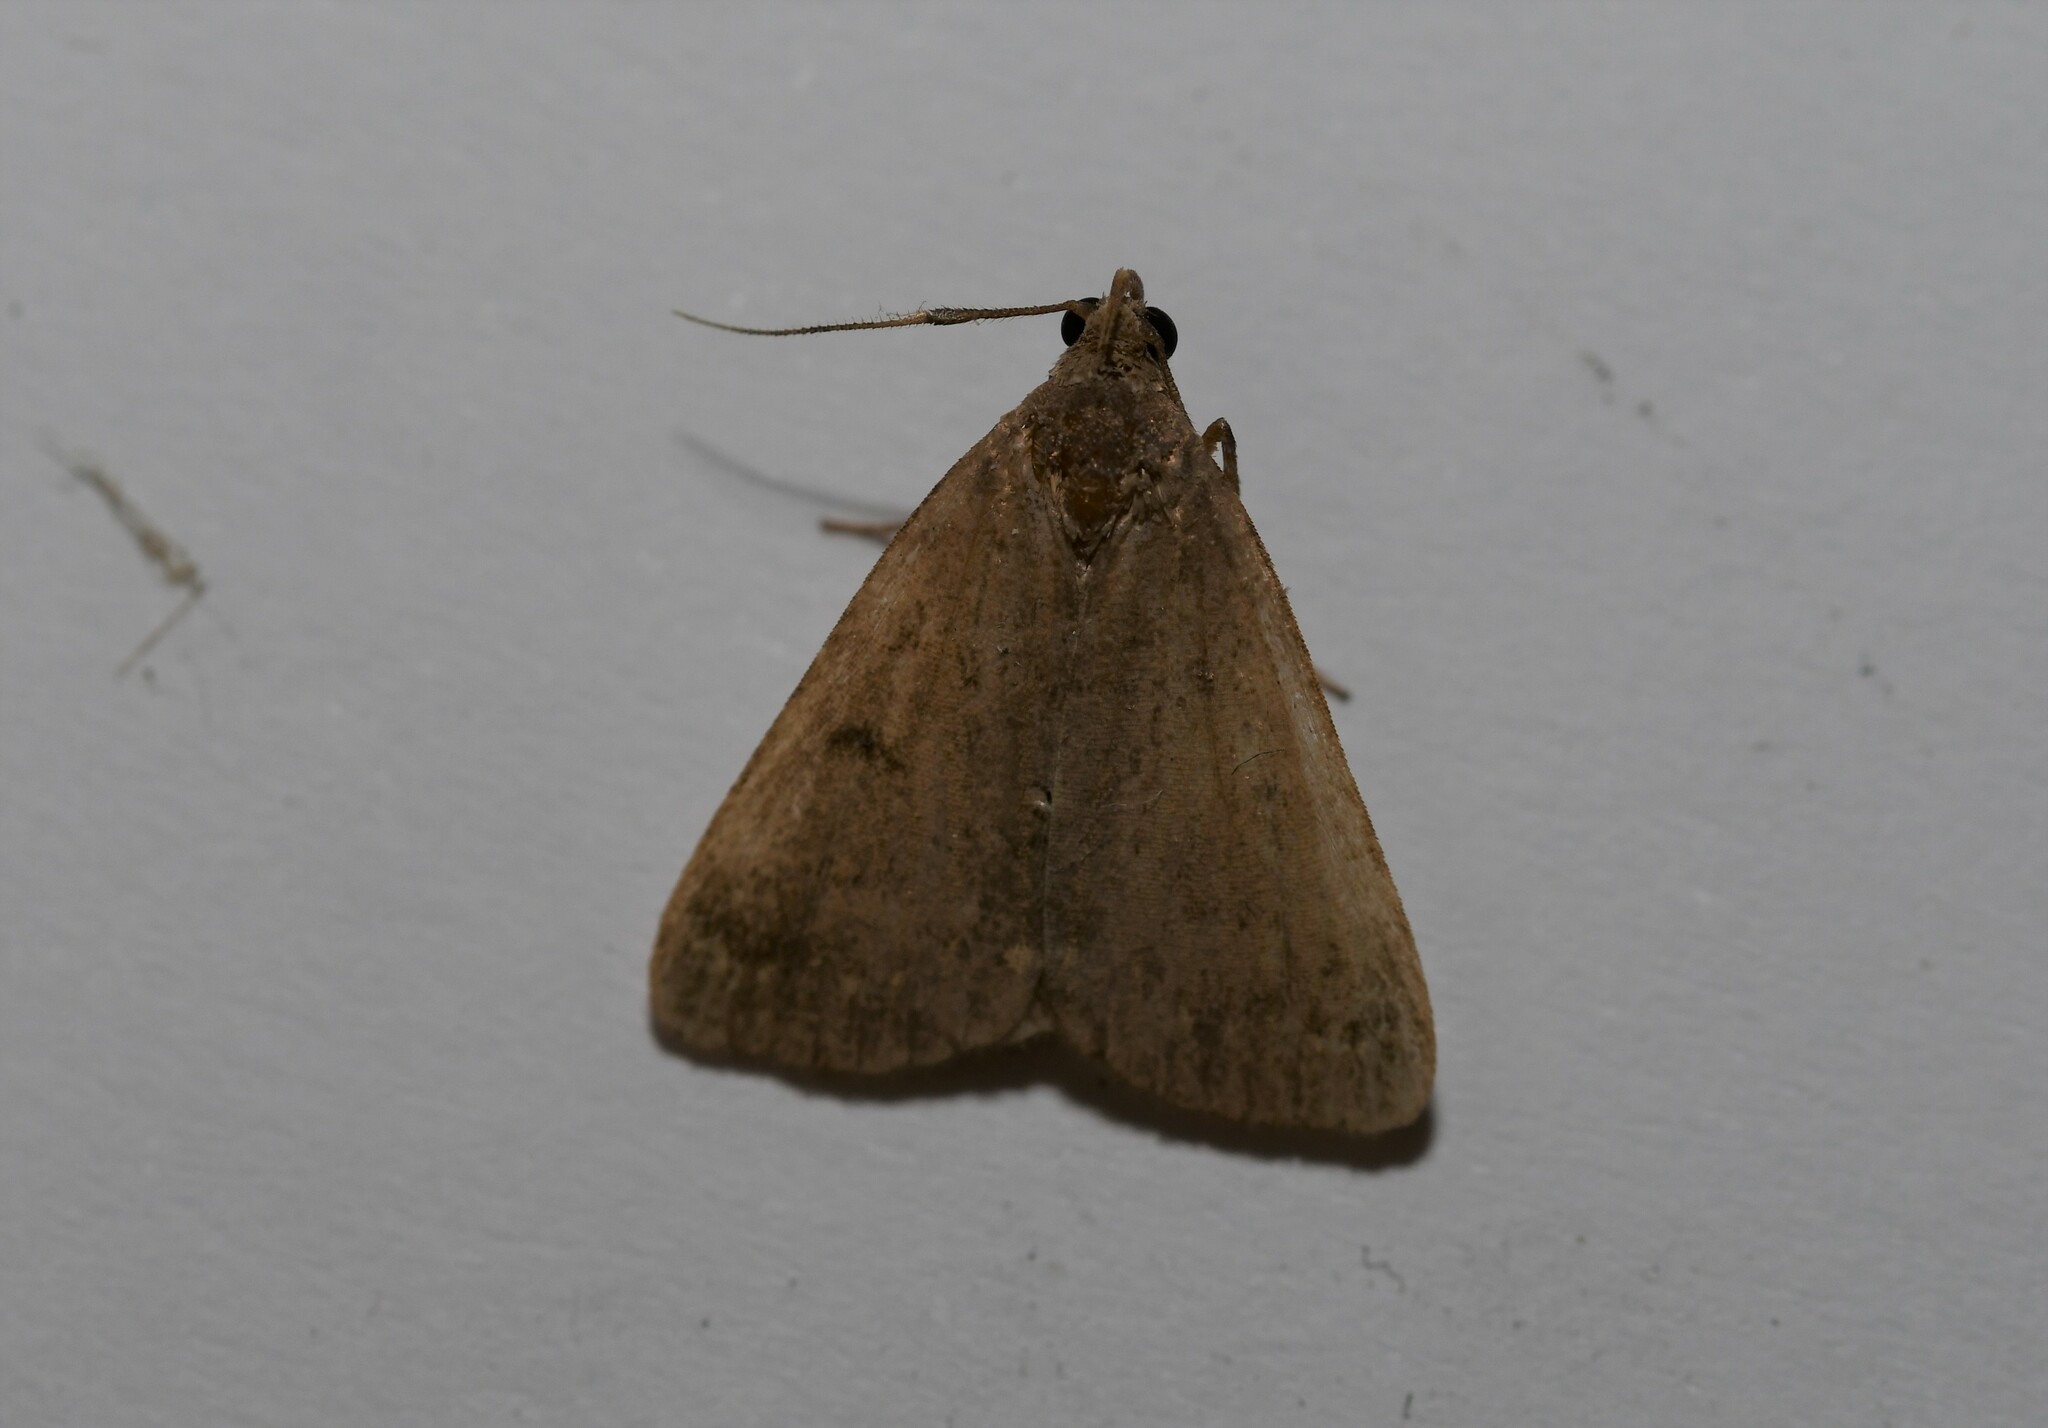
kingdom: Animalia
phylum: Arthropoda
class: Insecta
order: Lepidoptera
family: Erebidae
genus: Nodaria
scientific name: Nodaria nodosalis
